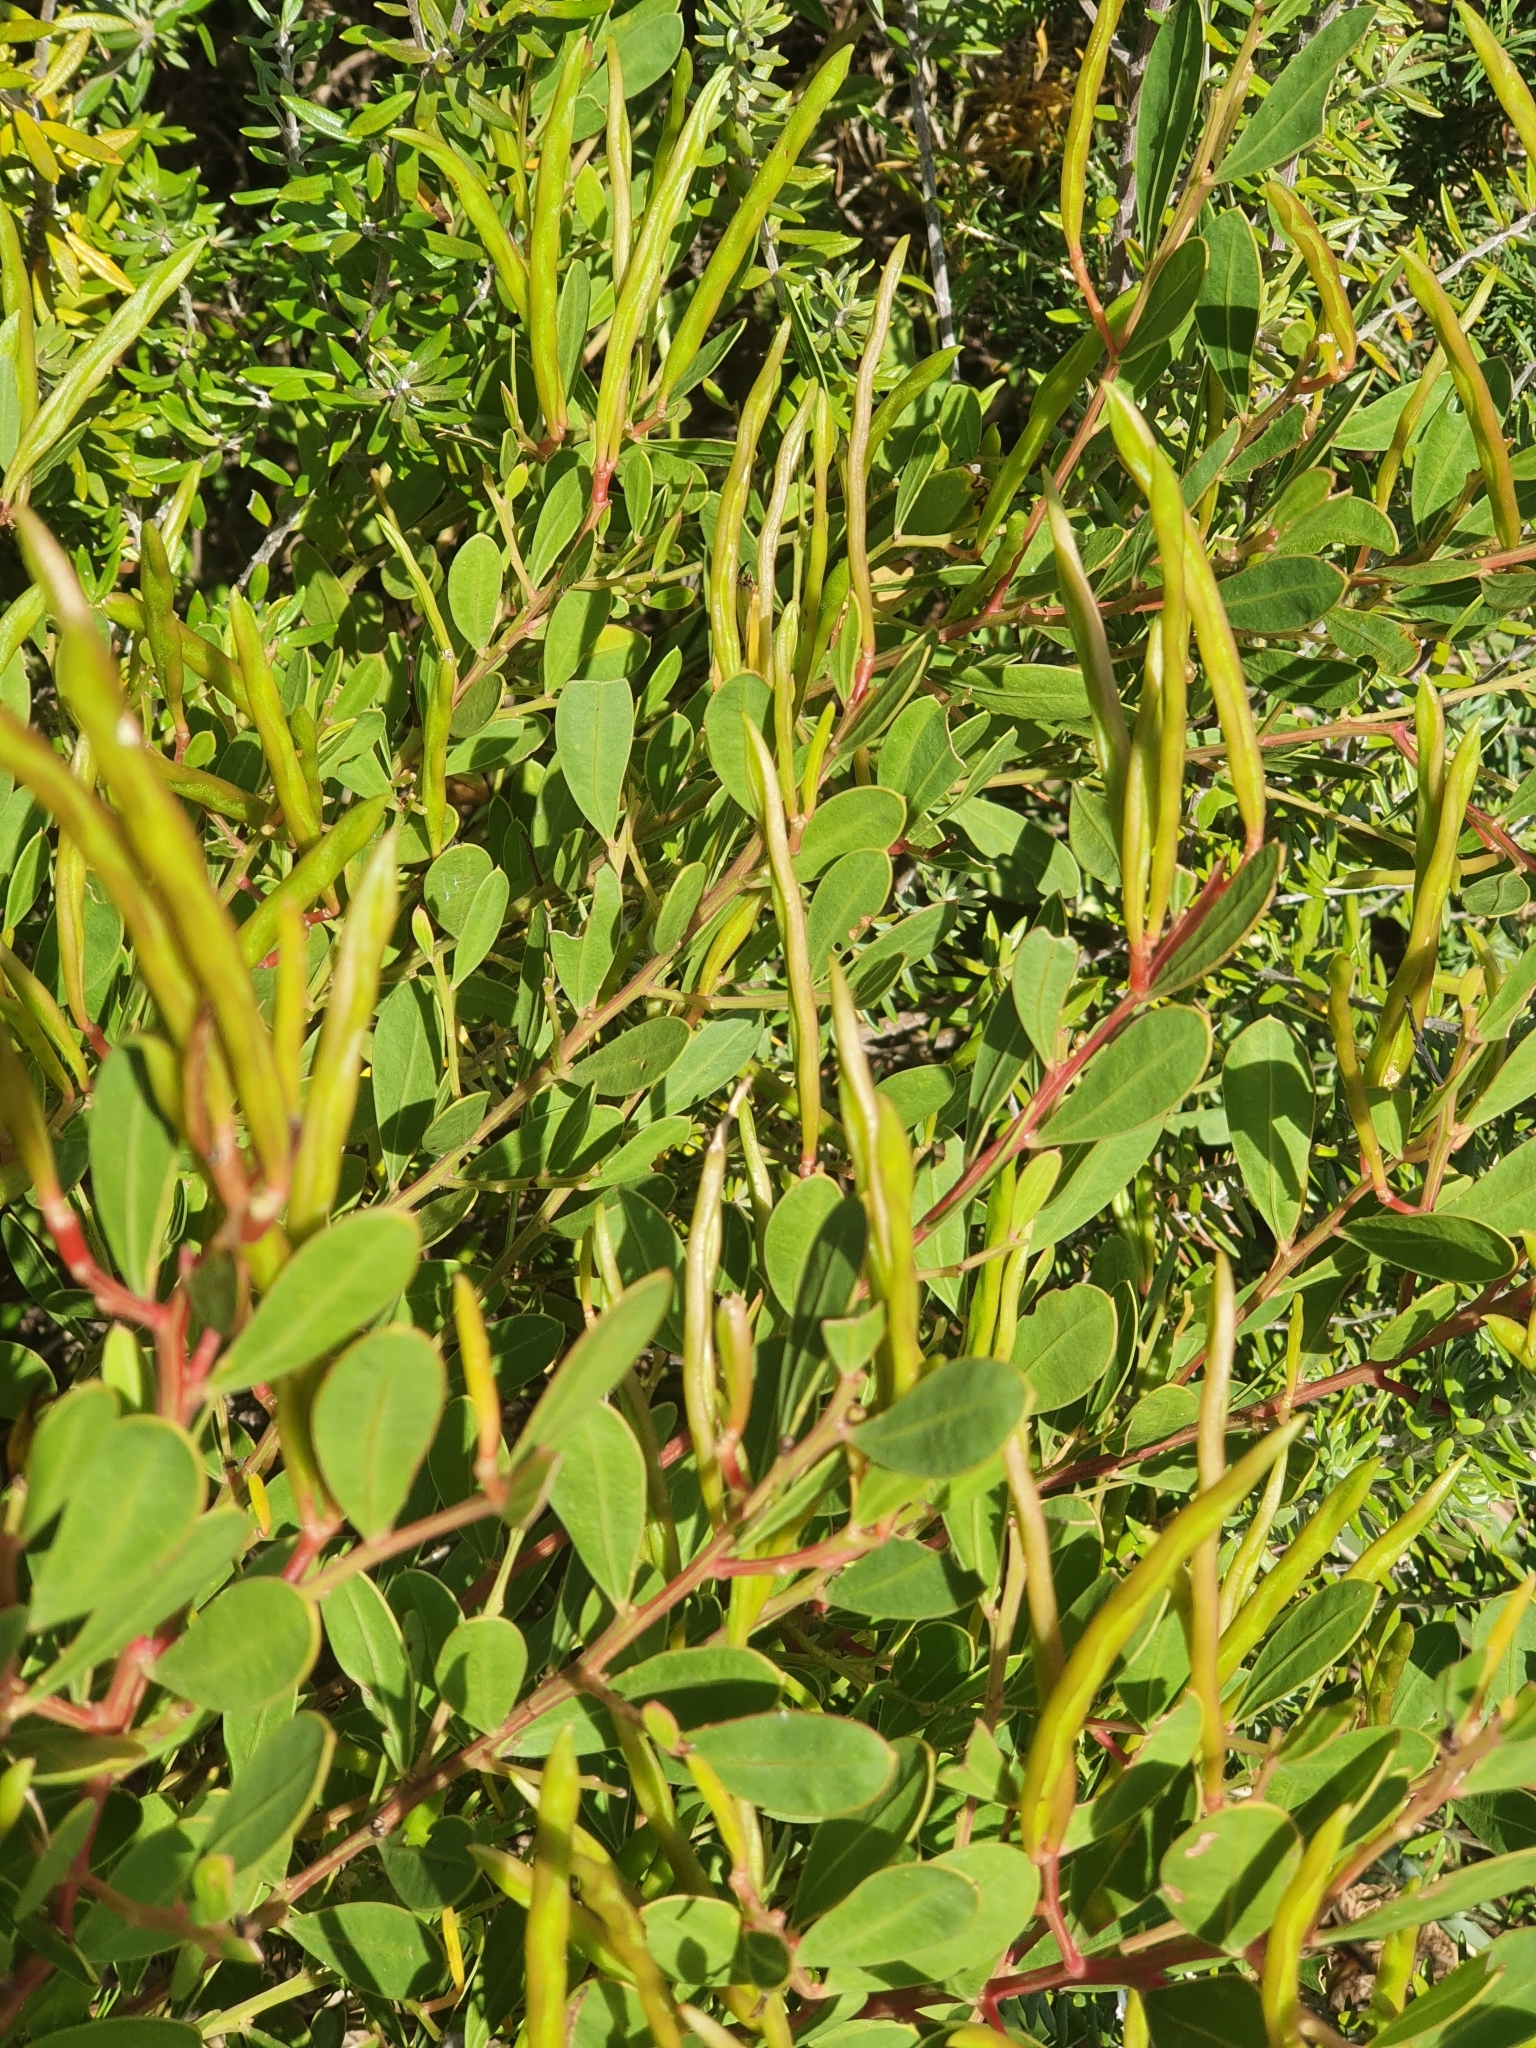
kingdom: Plantae
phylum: Tracheophyta
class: Magnoliopsida
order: Fabales
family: Fabaceae
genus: Acacia
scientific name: Acacia myrtifolia
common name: Myrtle wattle
